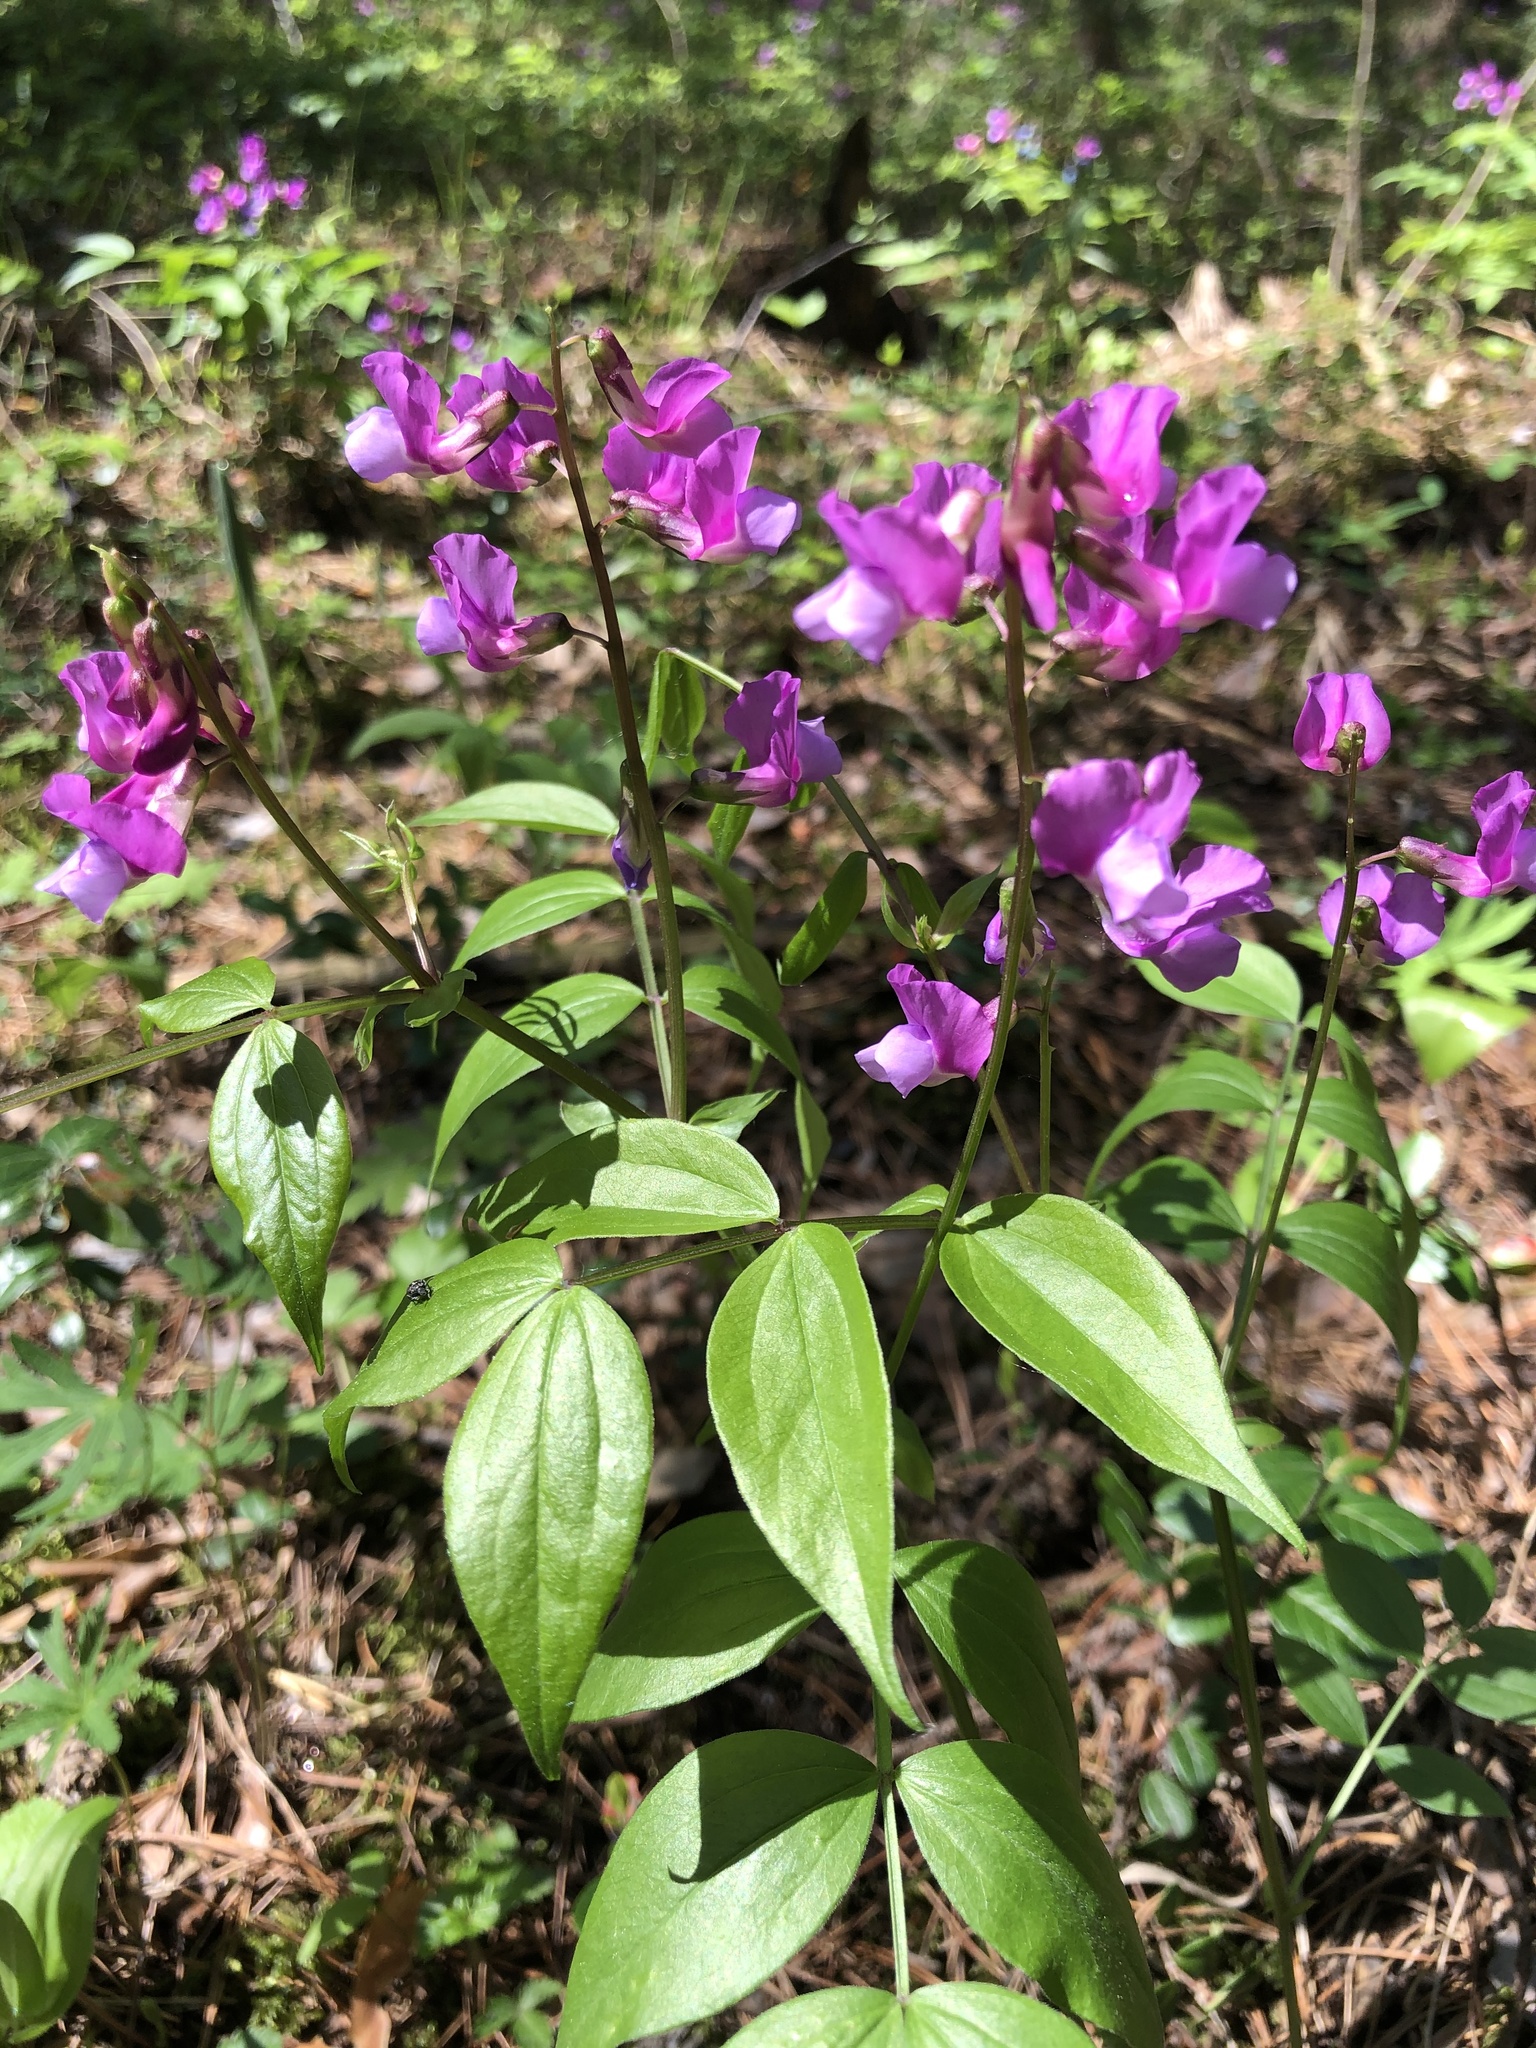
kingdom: Plantae
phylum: Tracheophyta
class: Magnoliopsida
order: Fabales
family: Fabaceae
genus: Lathyrus
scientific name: Lathyrus vernus
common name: Spring pea
